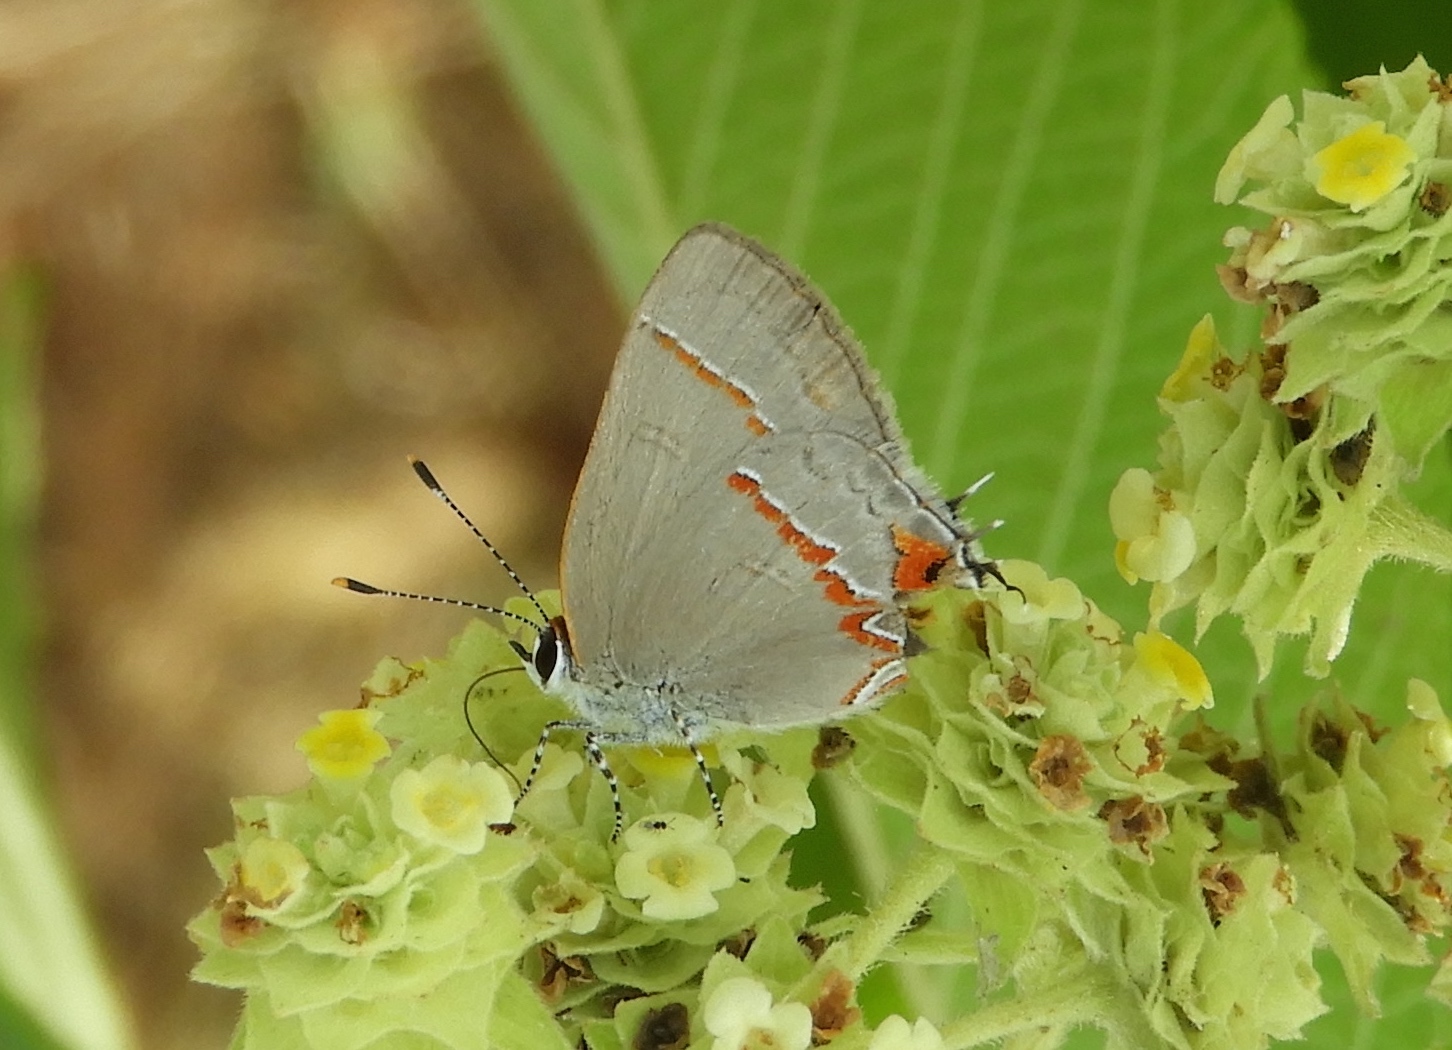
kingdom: Animalia
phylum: Arthropoda
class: Insecta
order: Lepidoptera
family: Lycaenidae
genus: Electrostrymon
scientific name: Electrostrymon endymion
